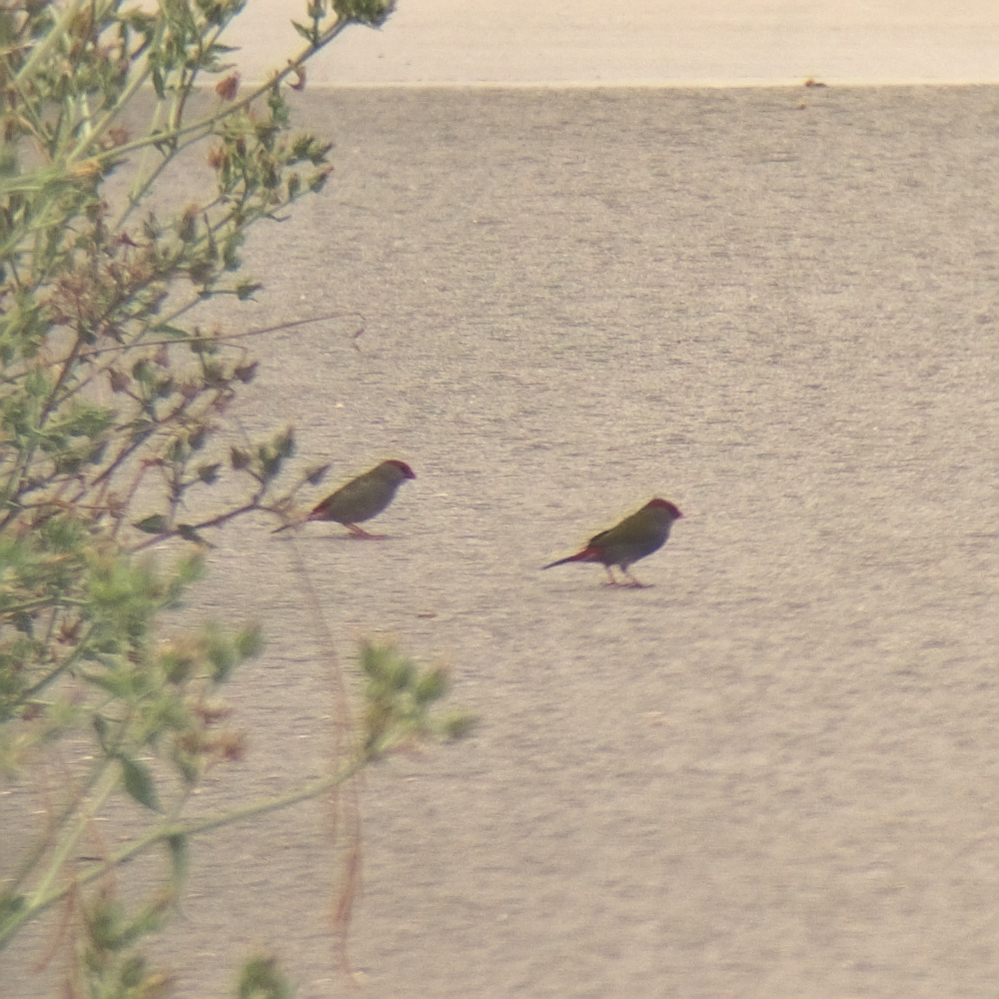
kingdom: Animalia
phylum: Chordata
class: Aves
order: Passeriformes
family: Estrildidae
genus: Neochmia
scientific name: Neochmia temporalis
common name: Red-browed finch
